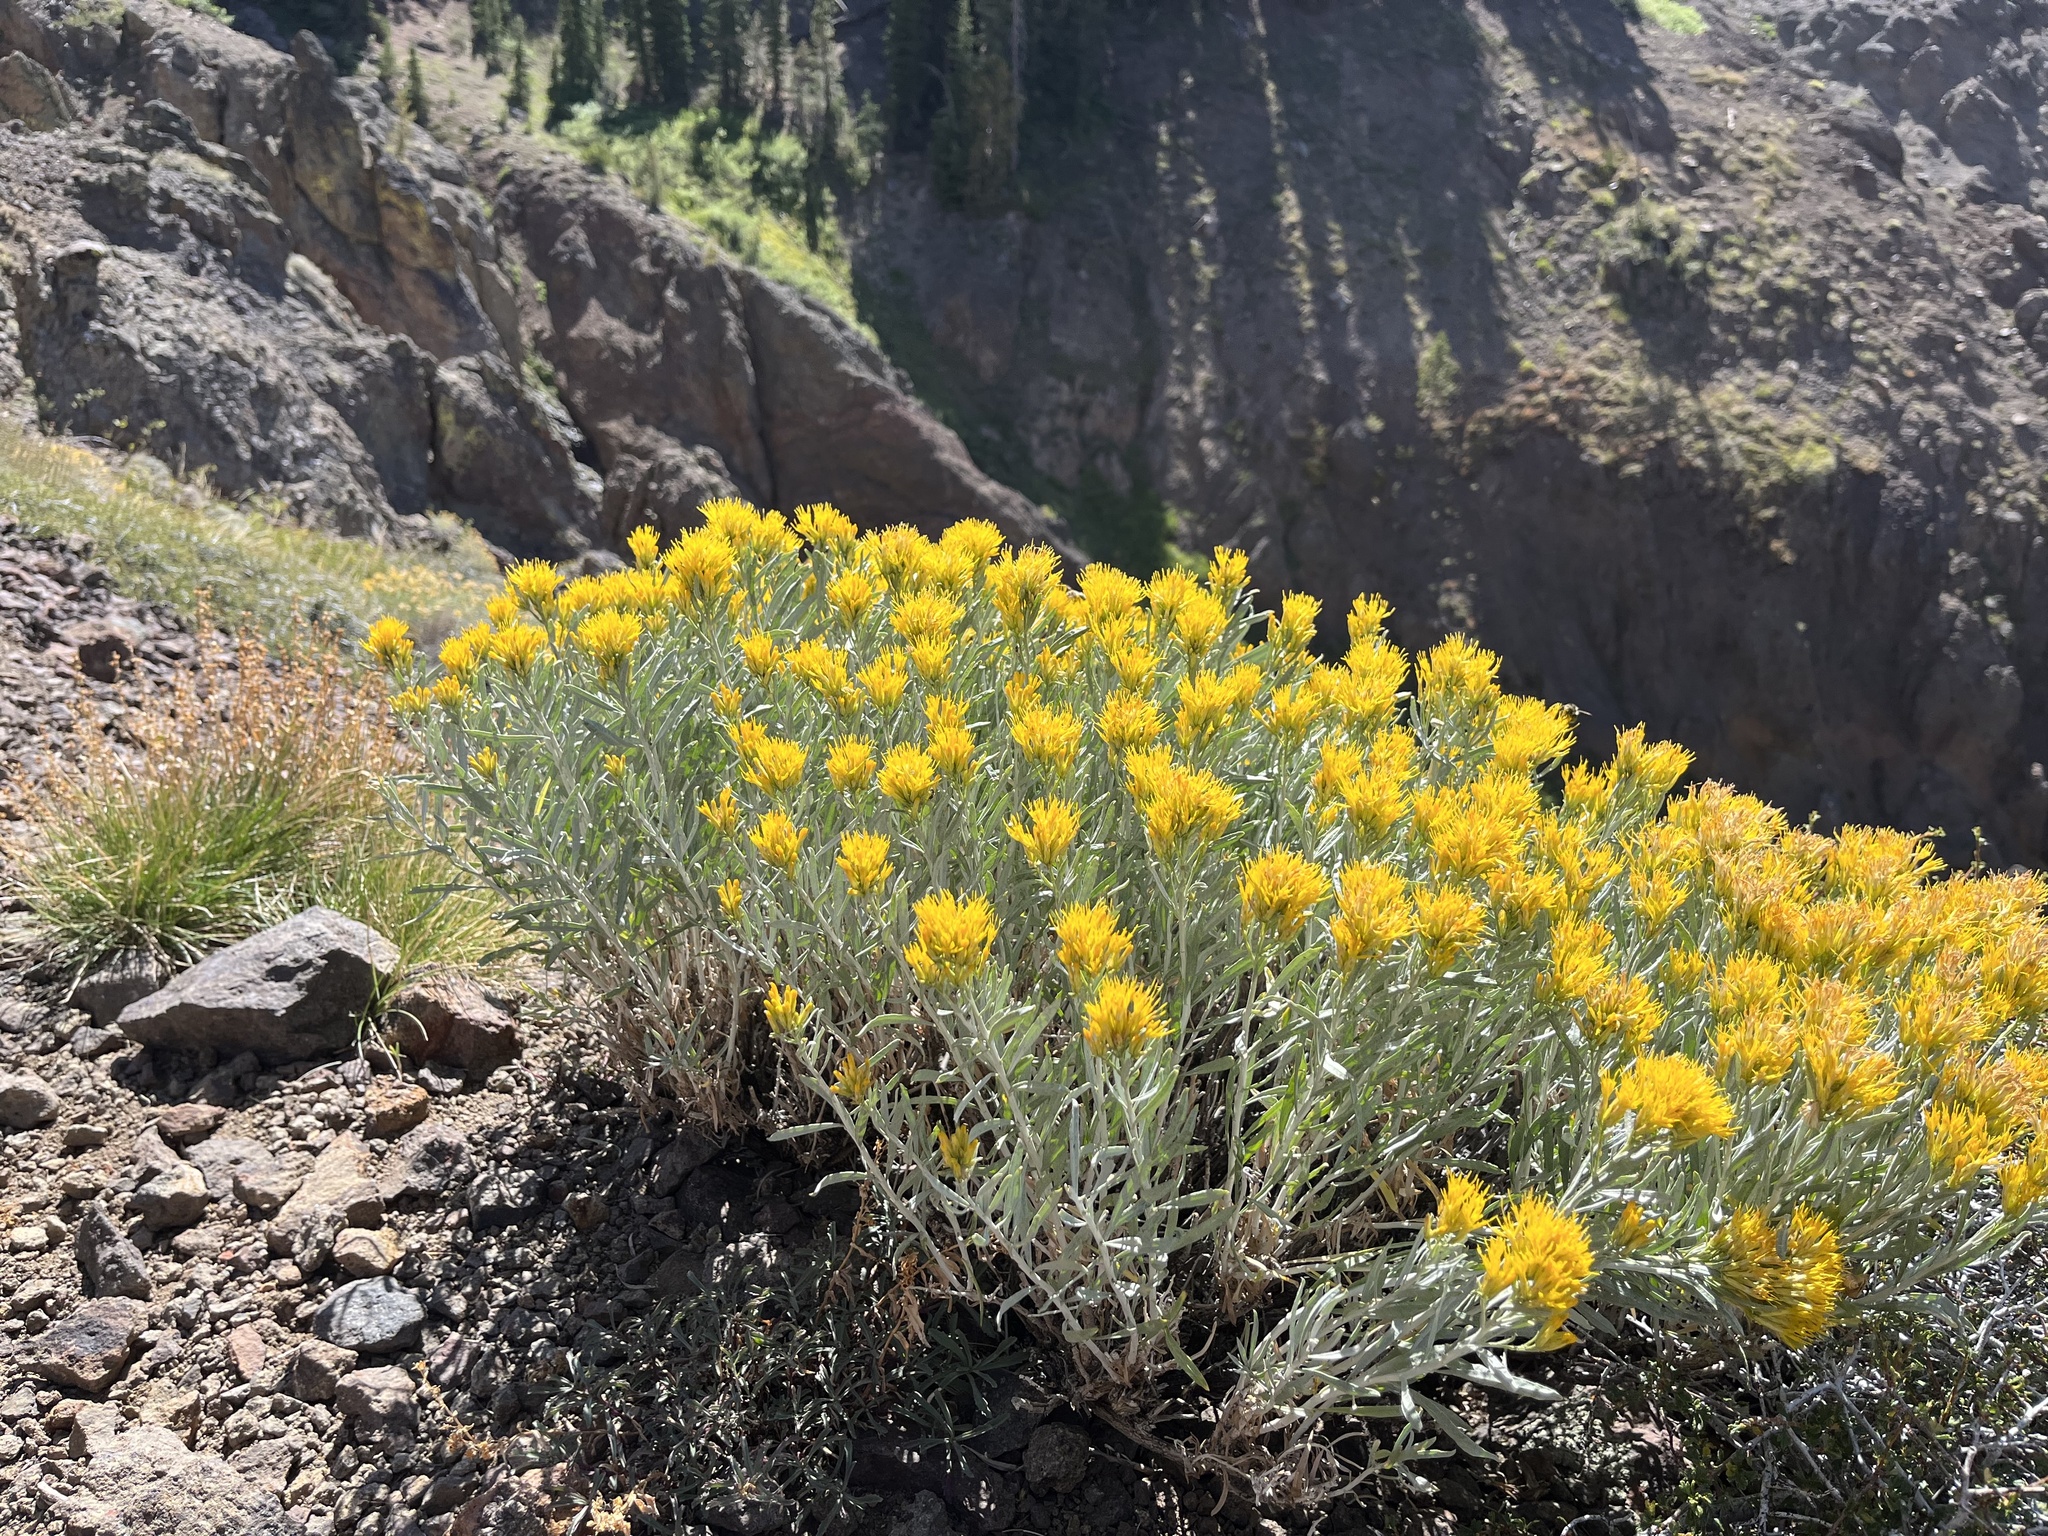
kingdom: Plantae
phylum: Tracheophyta
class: Magnoliopsida
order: Asterales
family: Asteraceae
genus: Ericameria
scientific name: Ericameria nauseosa
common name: Rubber rabbitbrush
